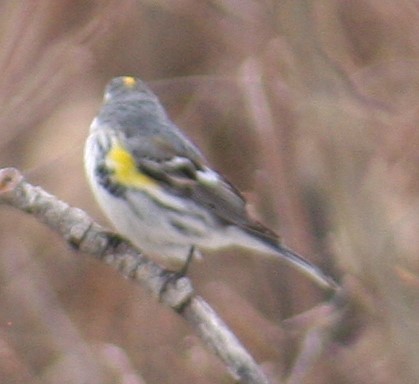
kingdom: Animalia
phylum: Chordata
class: Aves
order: Passeriformes
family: Parulidae
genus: Setophaga
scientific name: Setophaga coronata
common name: Myrtle warbler
